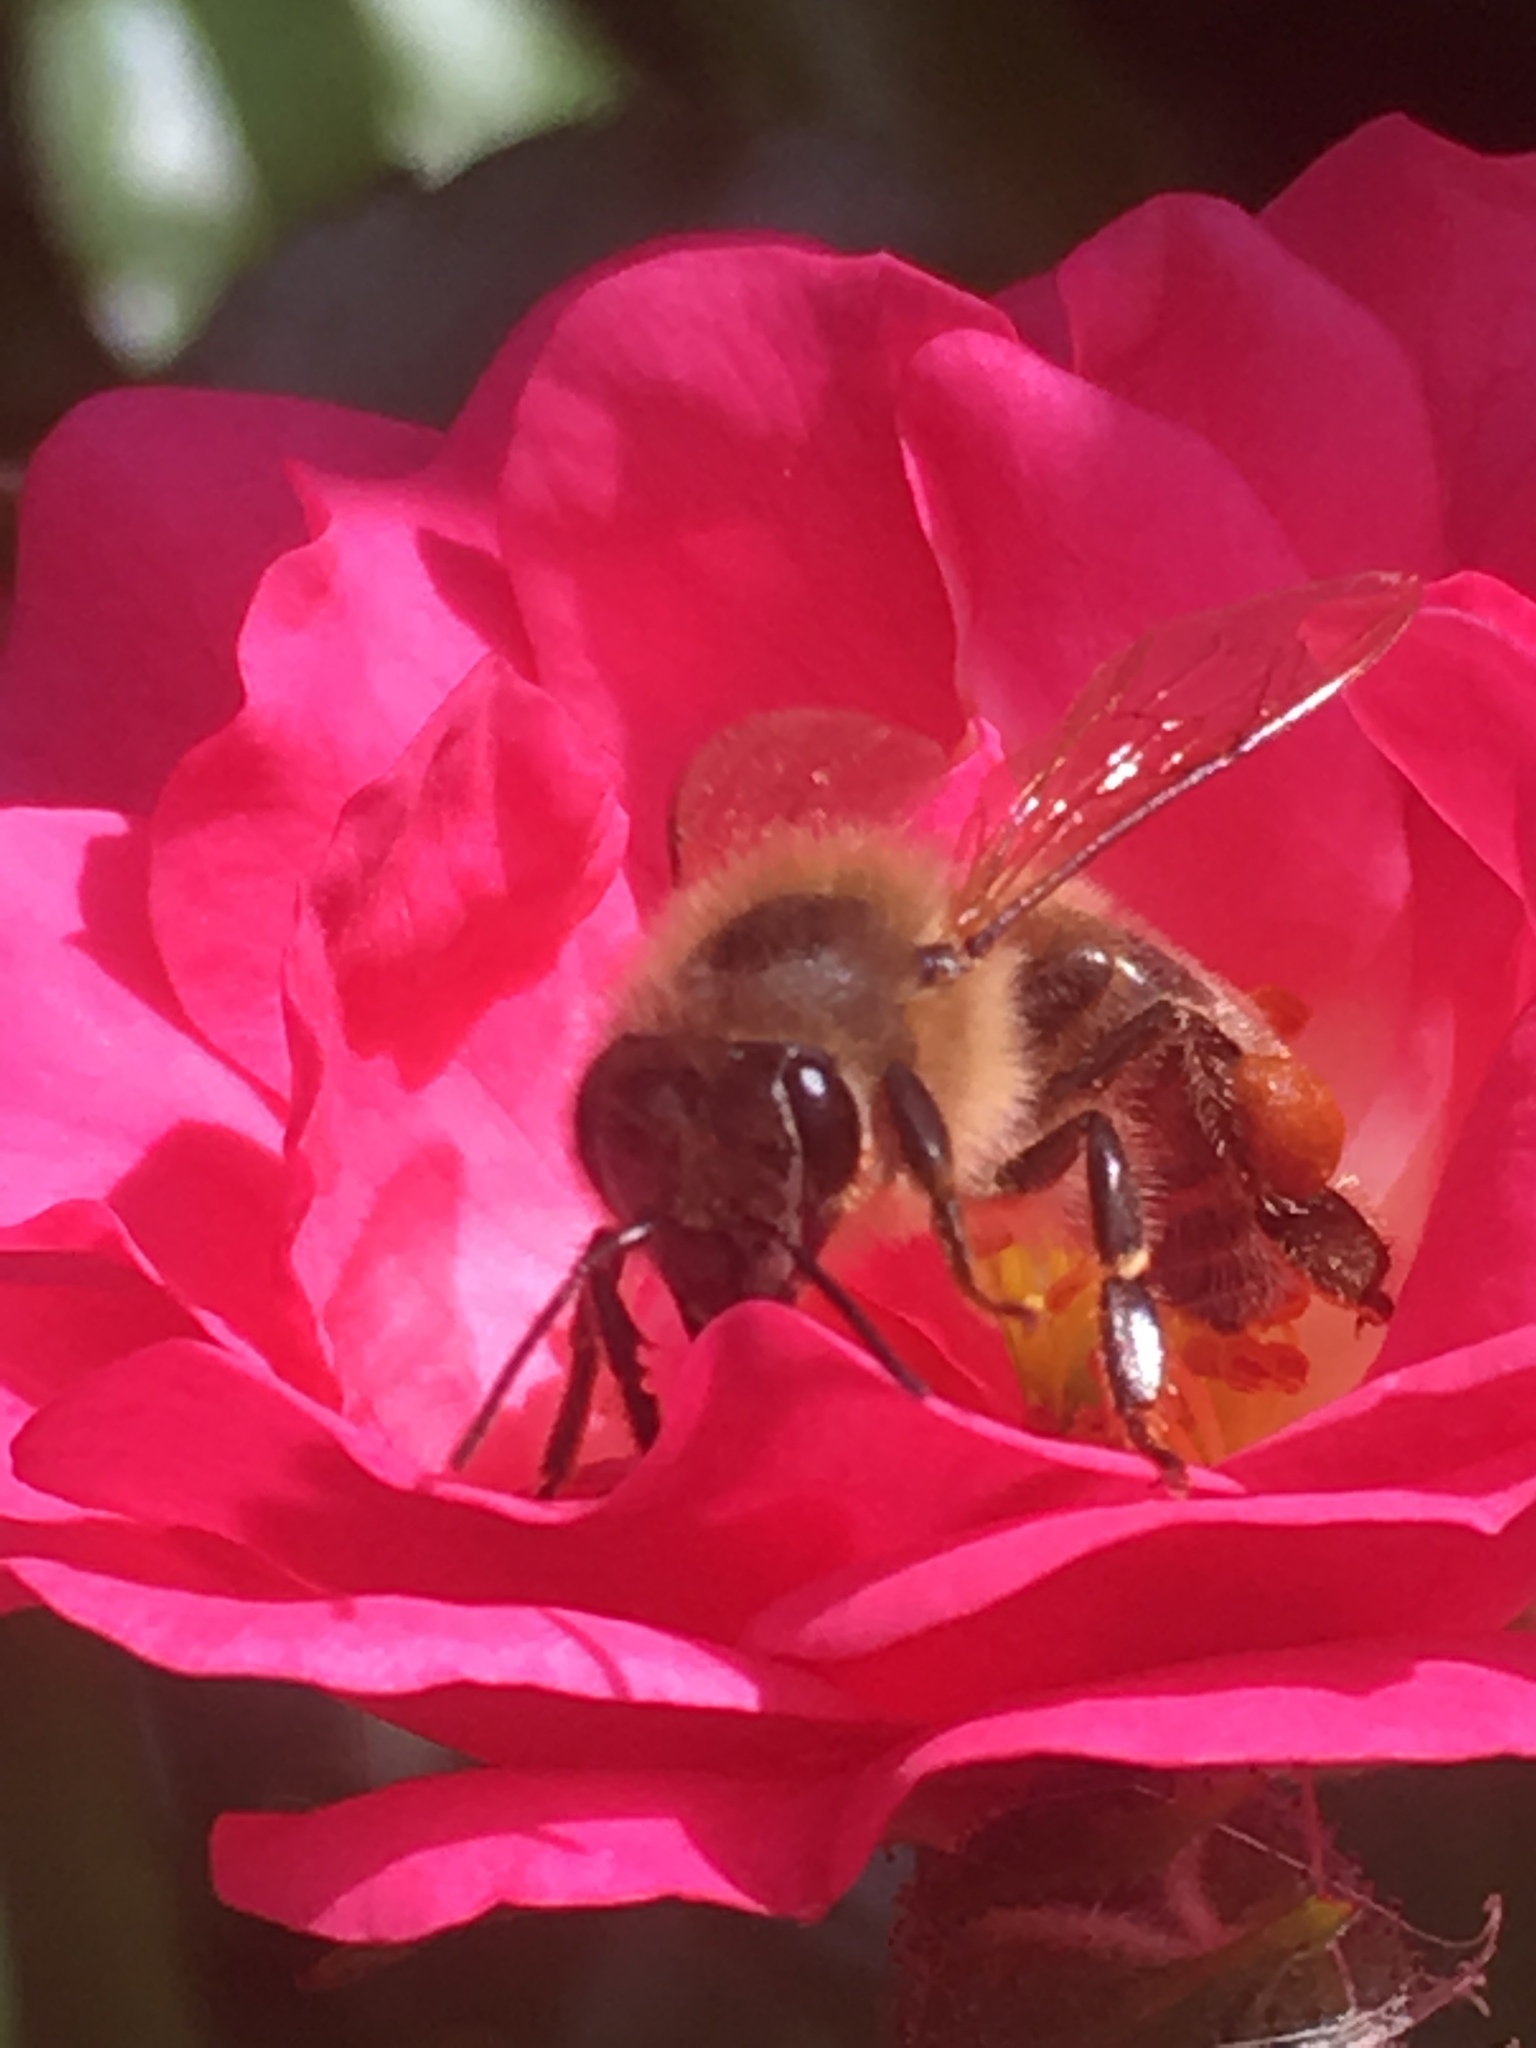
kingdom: Animalia
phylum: Arthropoda
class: Insecta
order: Hymenoptera
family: Apidae
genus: Apis
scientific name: Apis mellifera
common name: Honey bee
